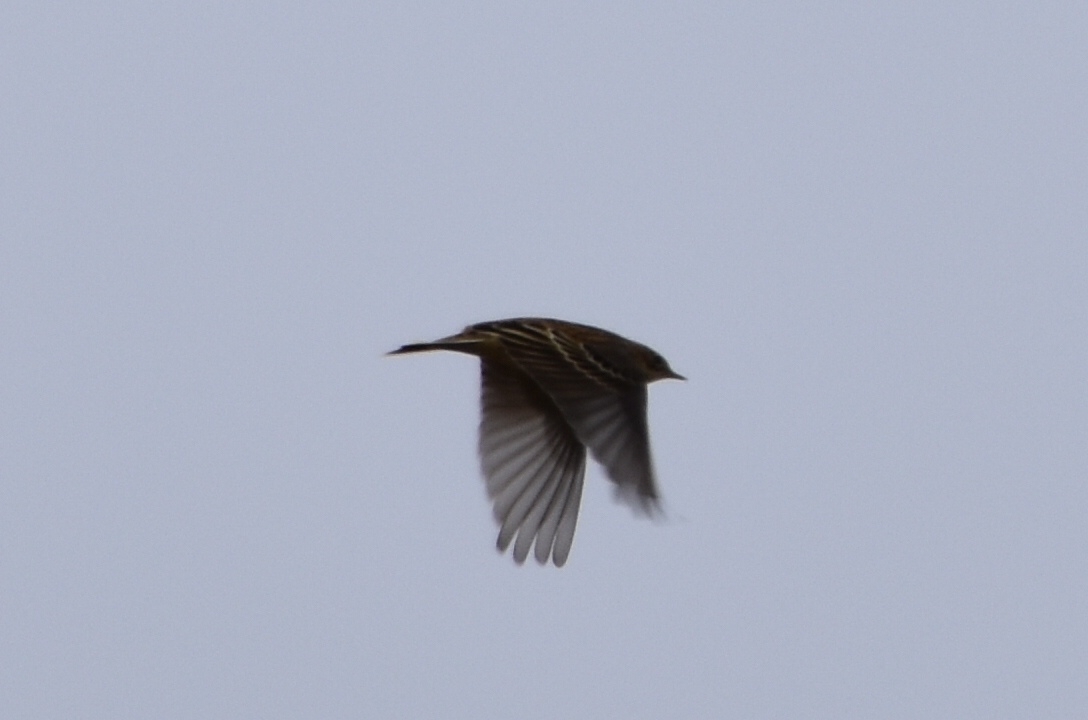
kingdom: Animalia
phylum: Chordata
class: Aves
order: Passeriformes
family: Motacillidae
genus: Anthus
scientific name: Anthus cervinus
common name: Red-throated pipit
